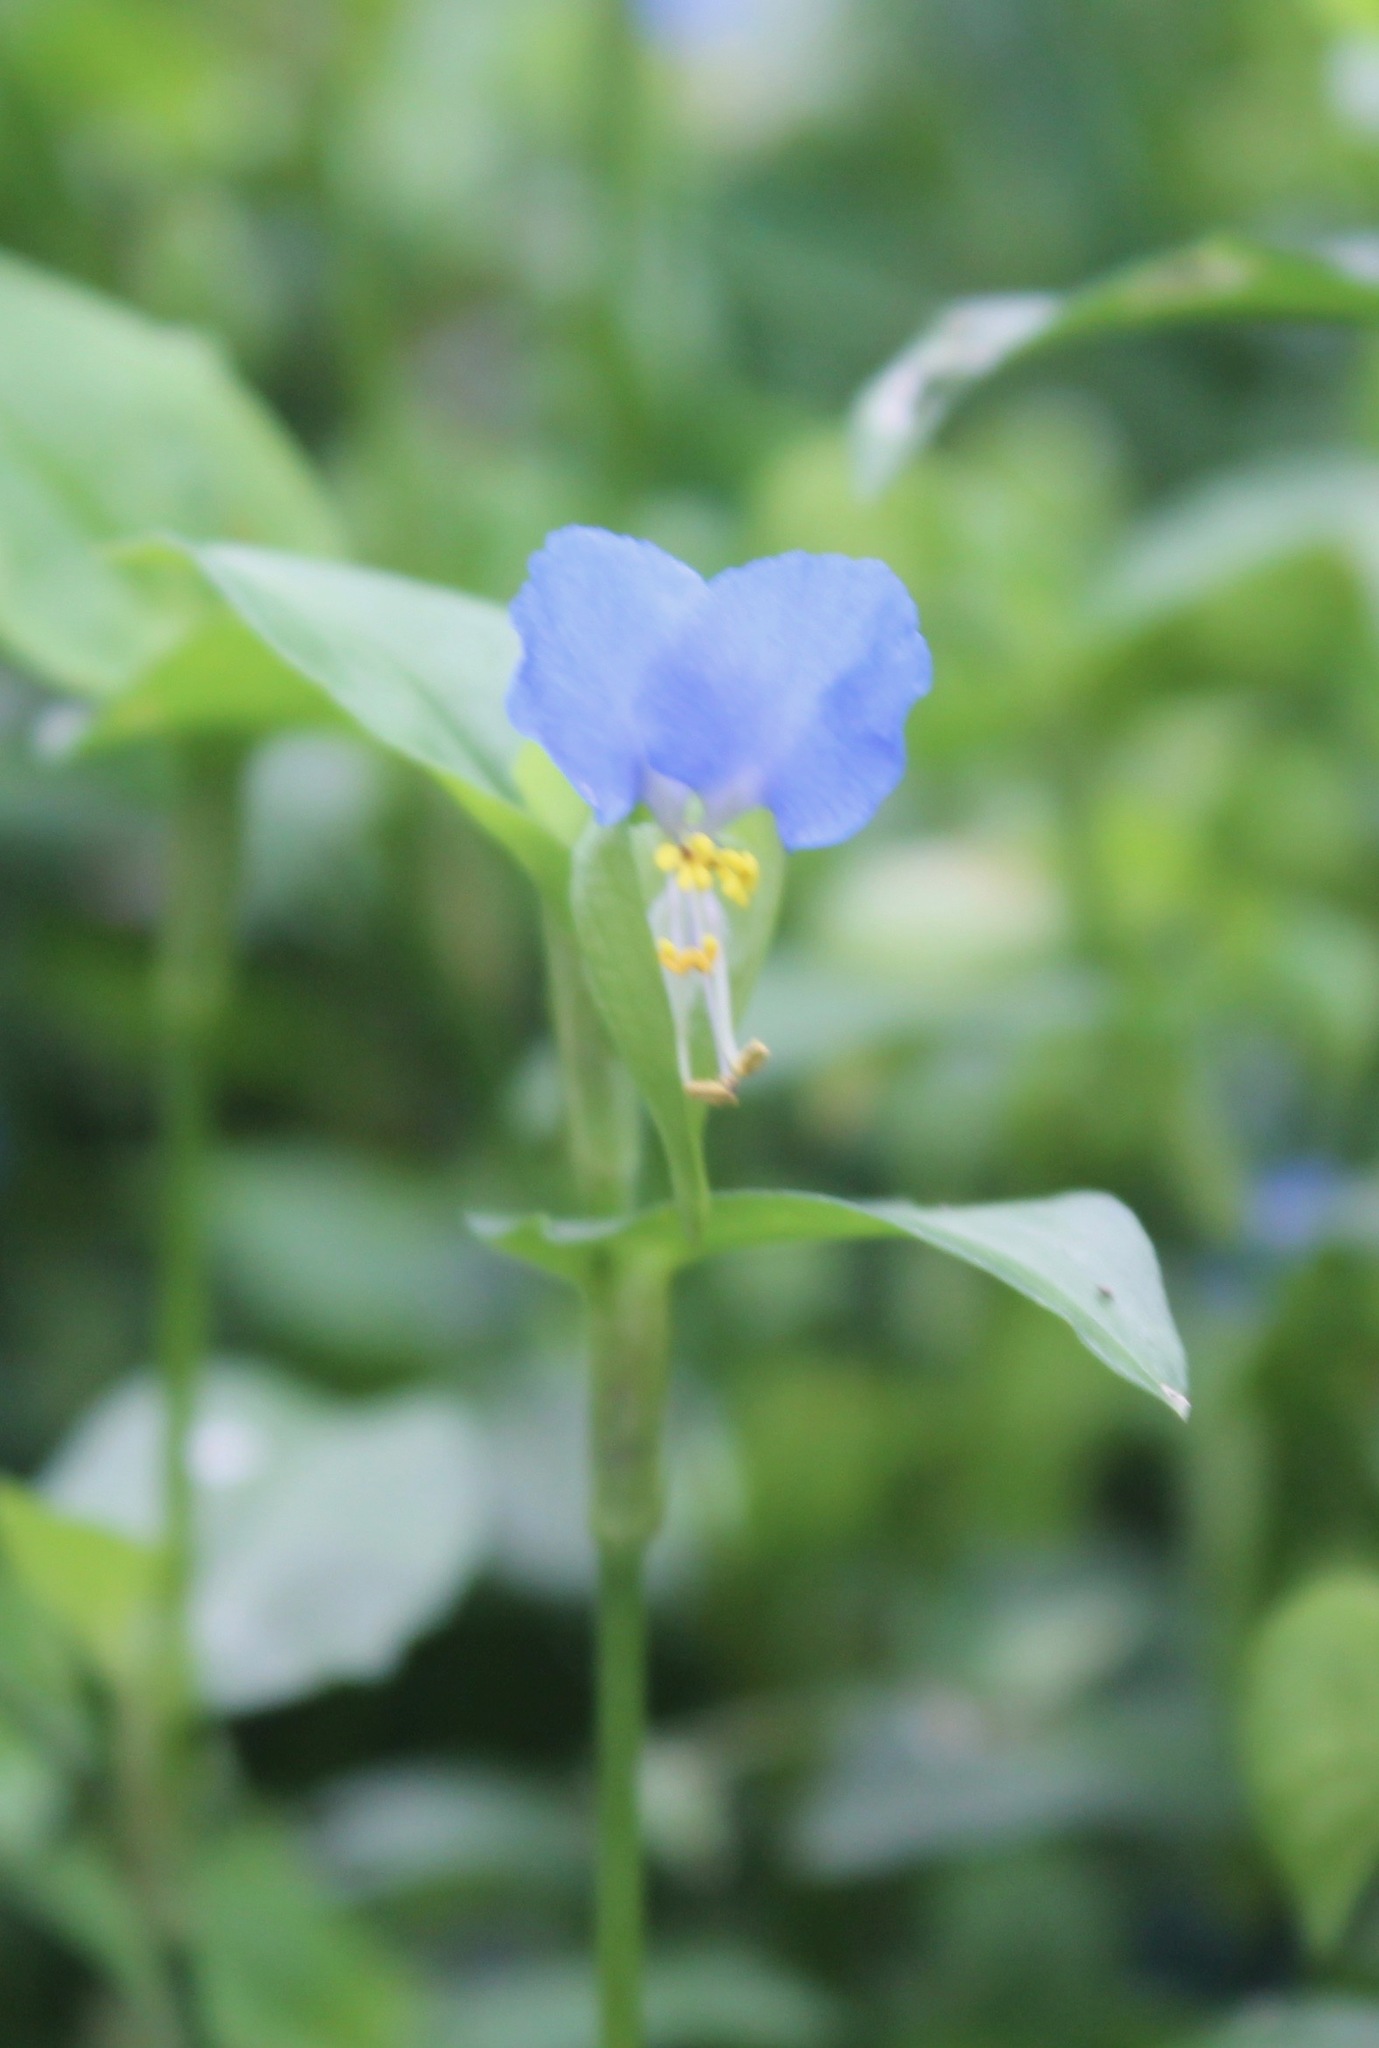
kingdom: Plantae
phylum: Tracheophyta
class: Liliopsida
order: Commelinales
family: Commelinaceae
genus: Commelina
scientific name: Commelina communis
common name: Asiatic dayflower
